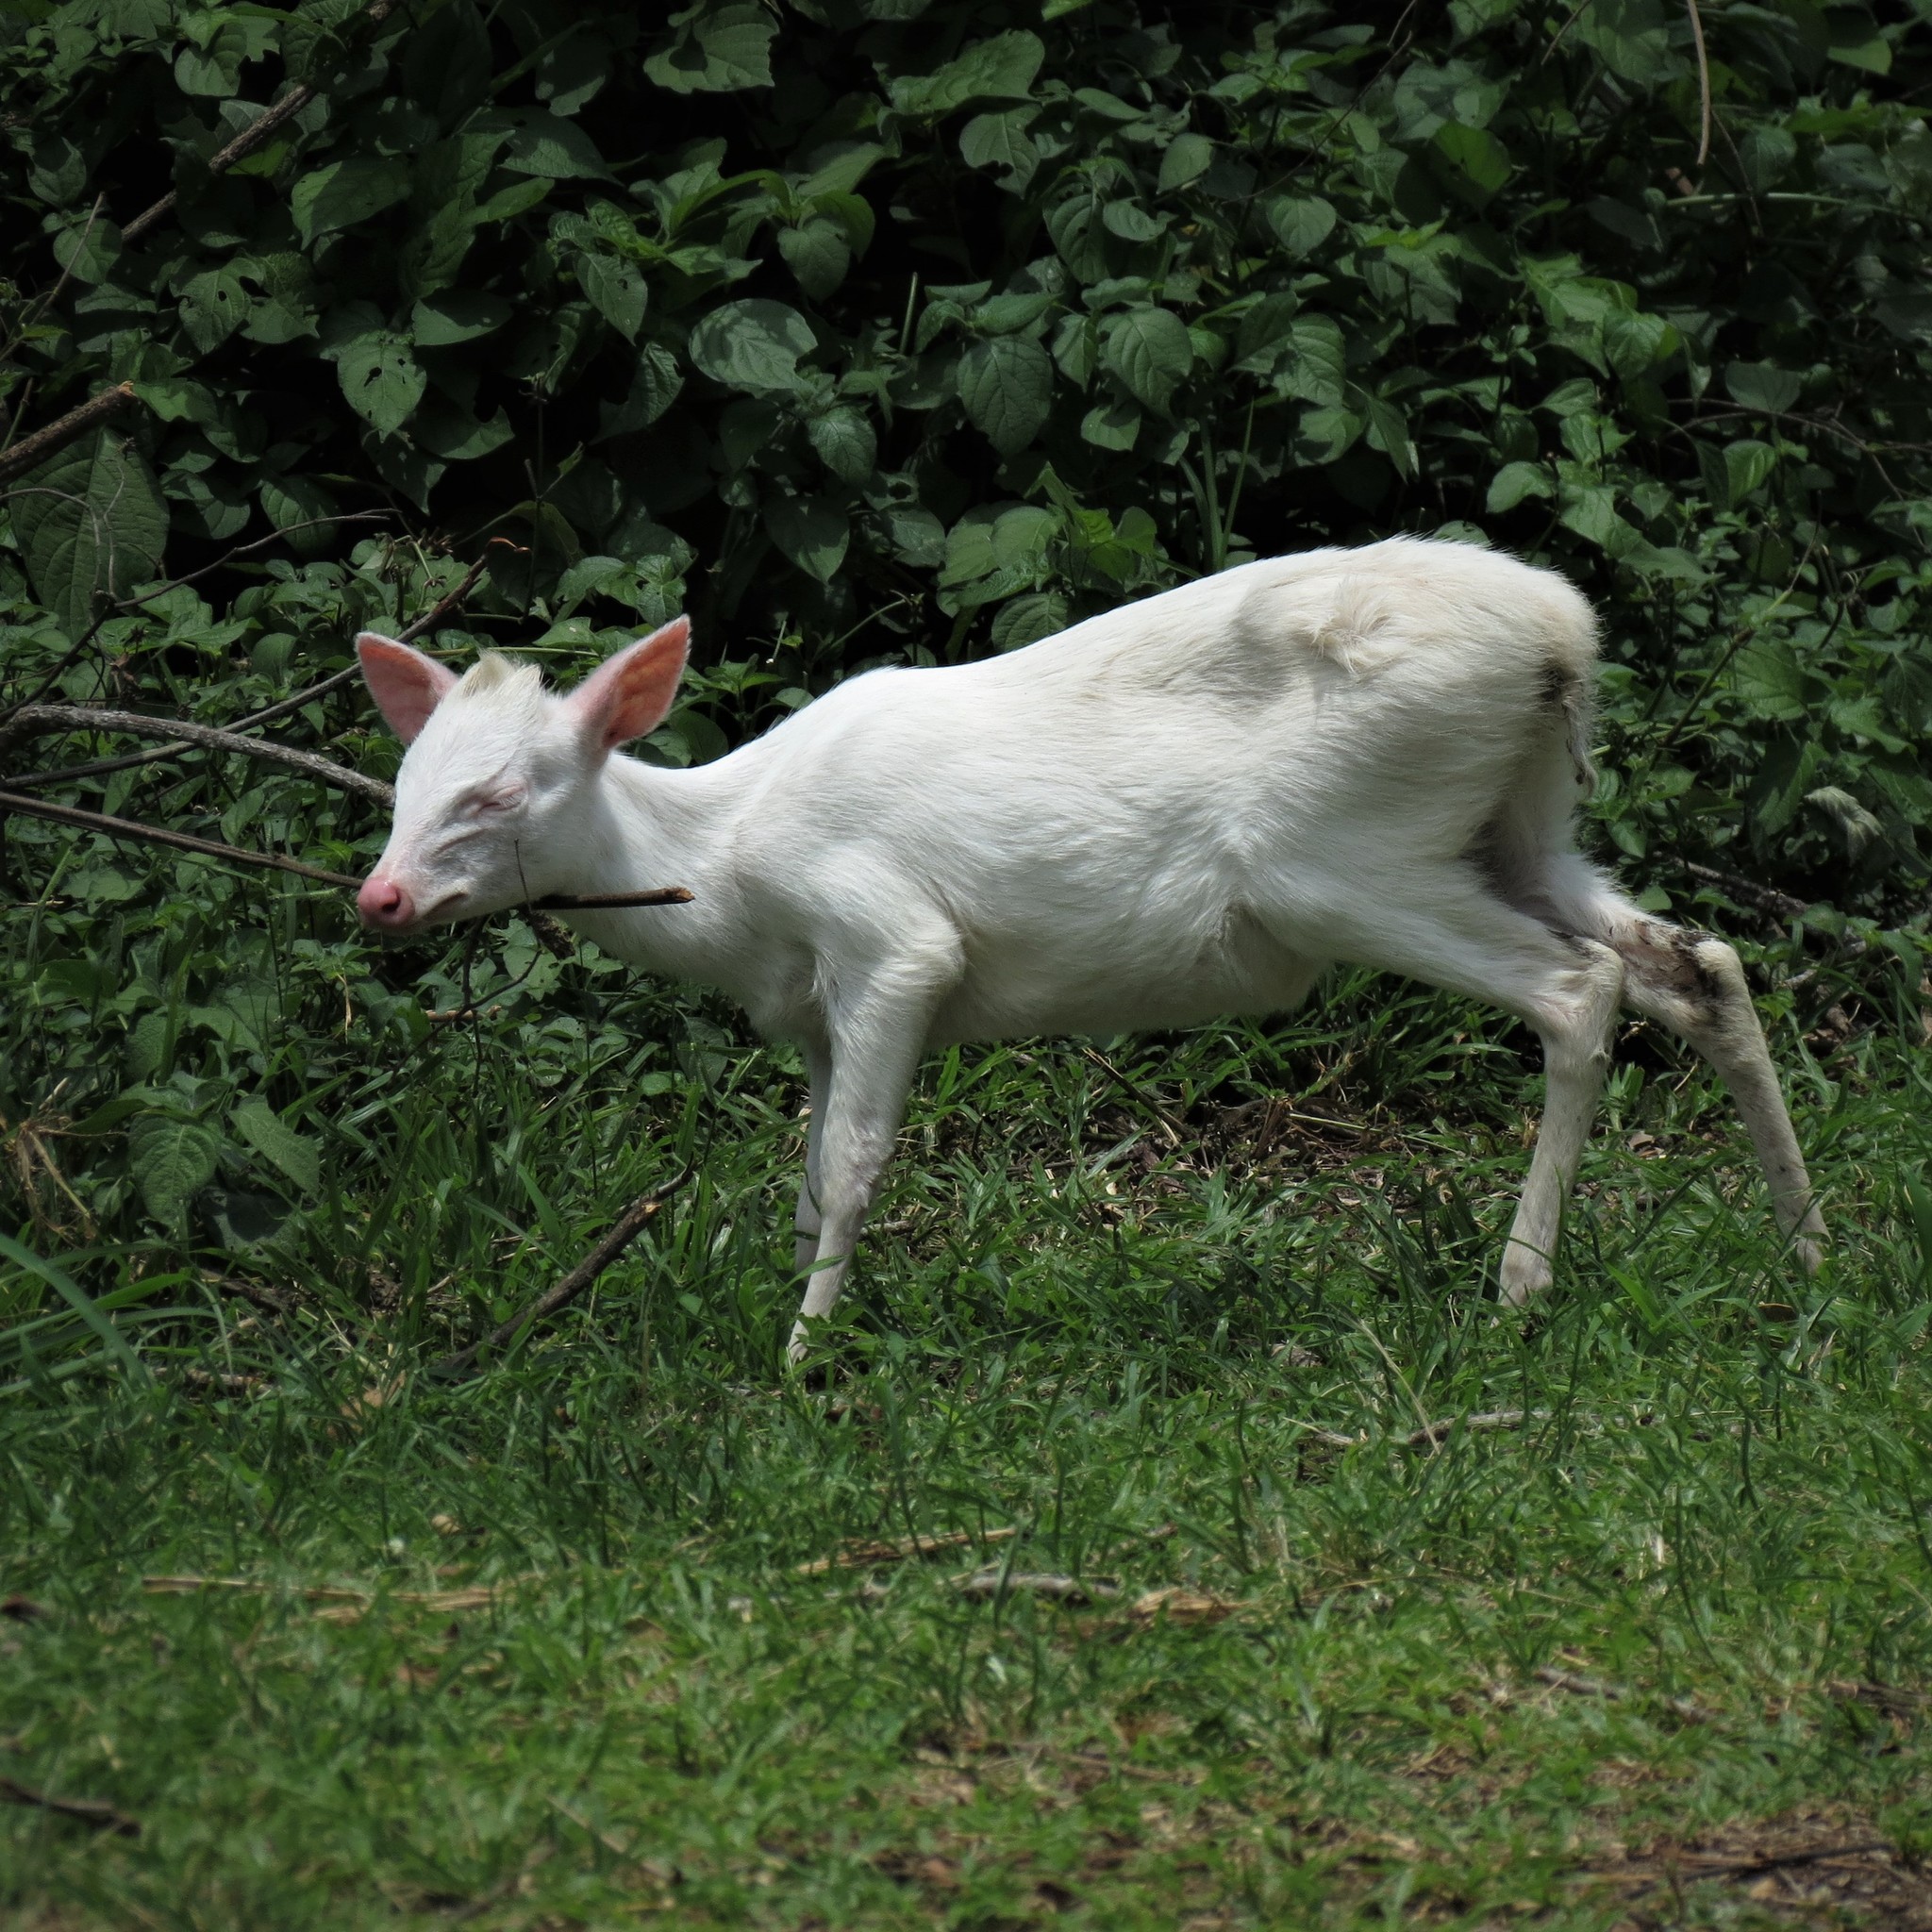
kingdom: Animalia
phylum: Chordata
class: Mammalia
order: Artiodactyla
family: Bovidae
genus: Cephalophus
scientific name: Cephalophus natalensis
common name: Red duiker
